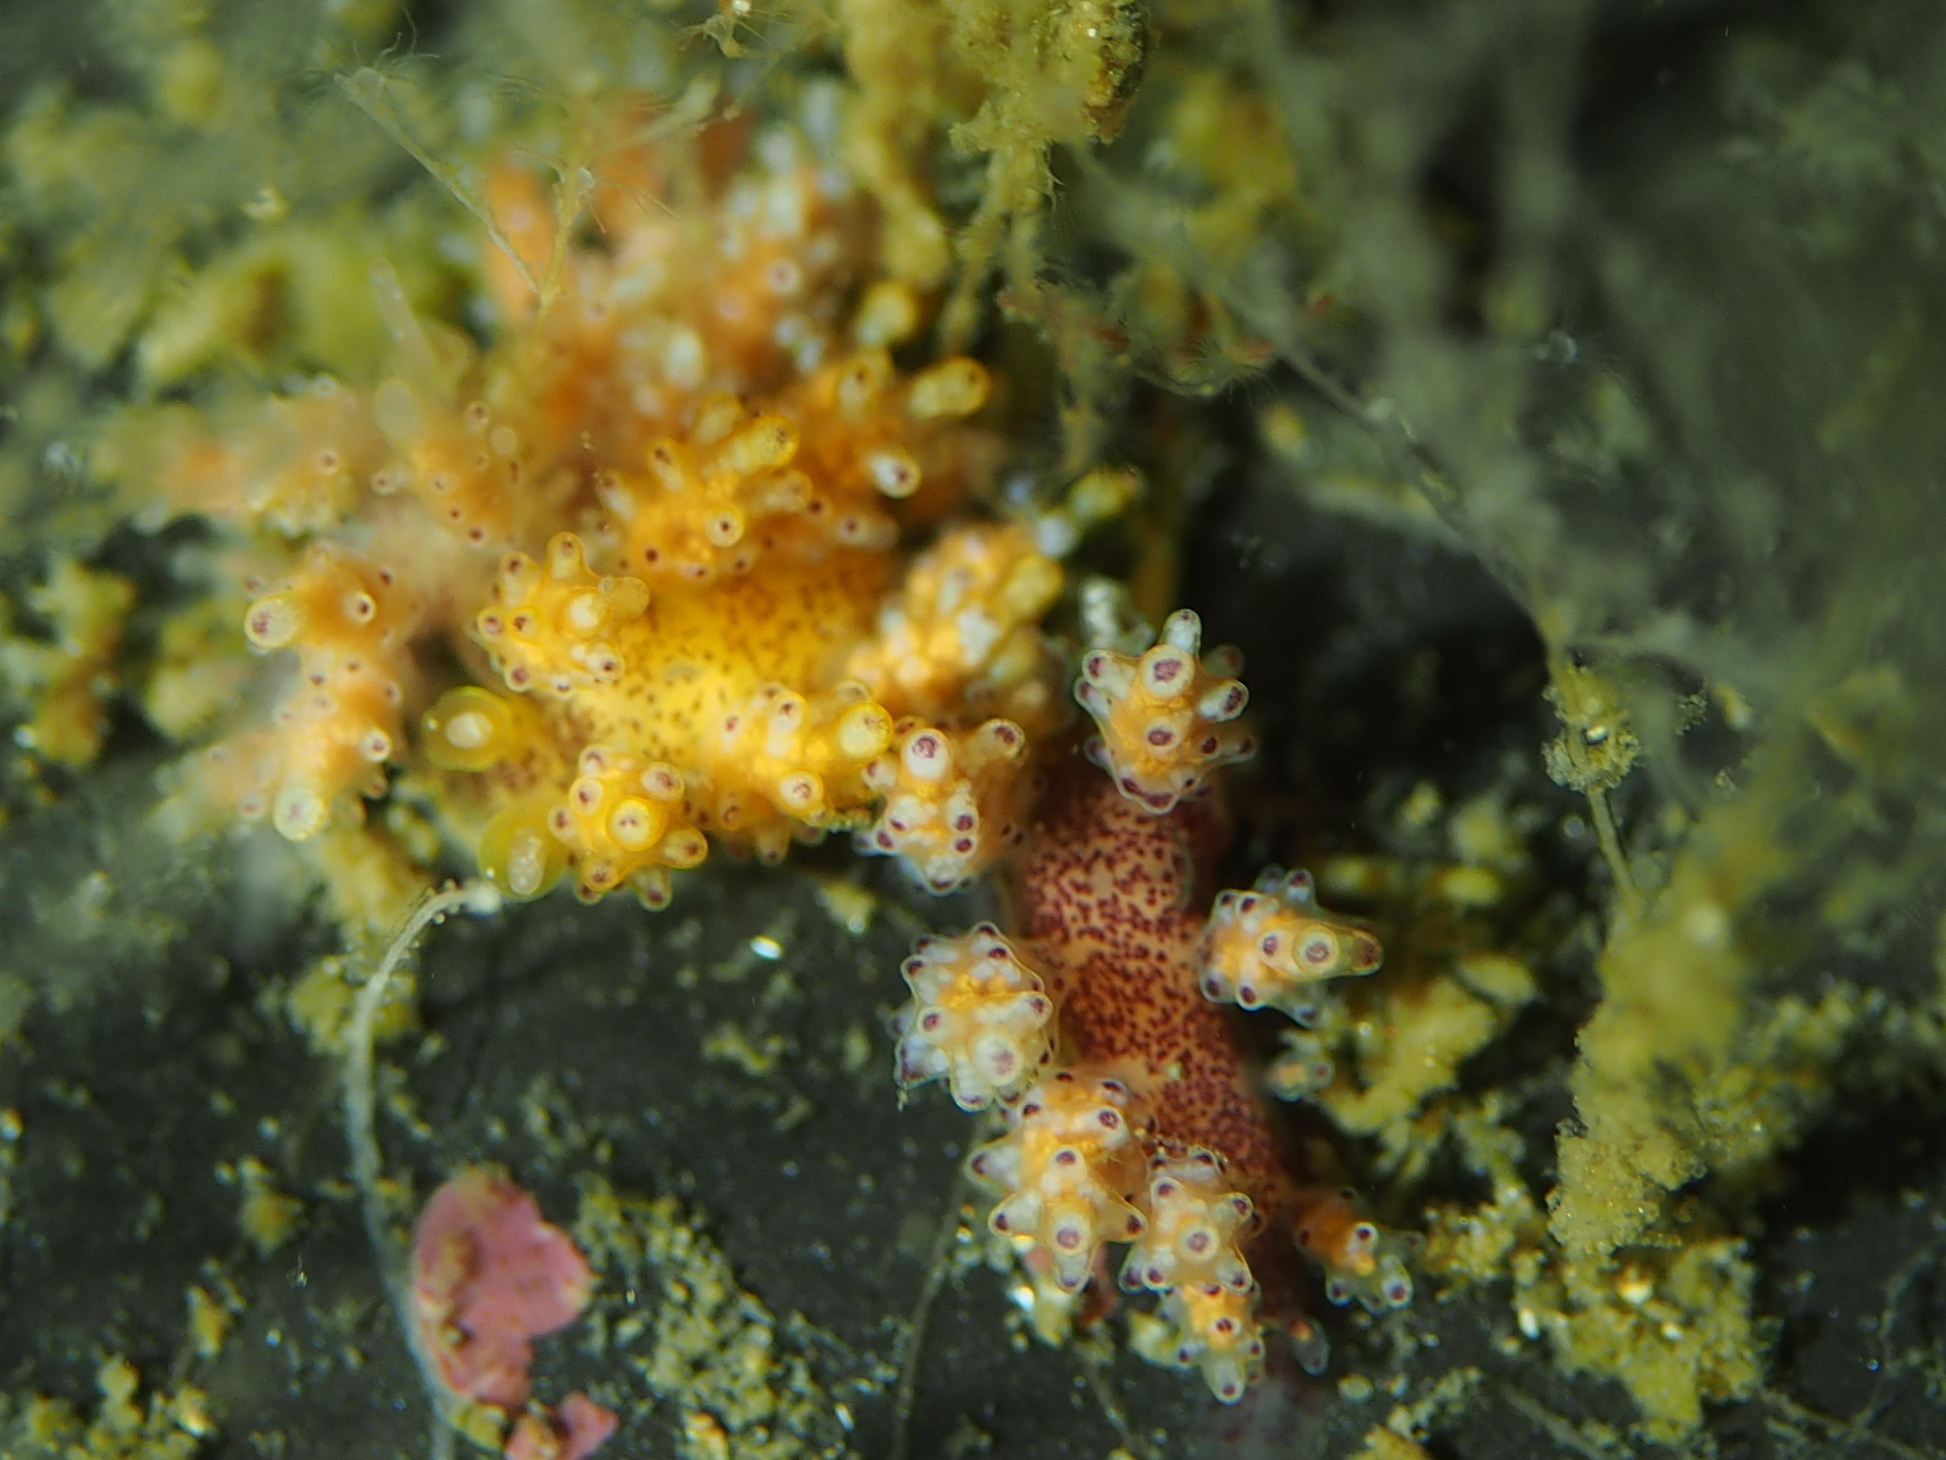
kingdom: Animalia
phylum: Mollusca
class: Gastropoda
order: Nudibranchia
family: Dotidae
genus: Doto
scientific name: Doto maculata
